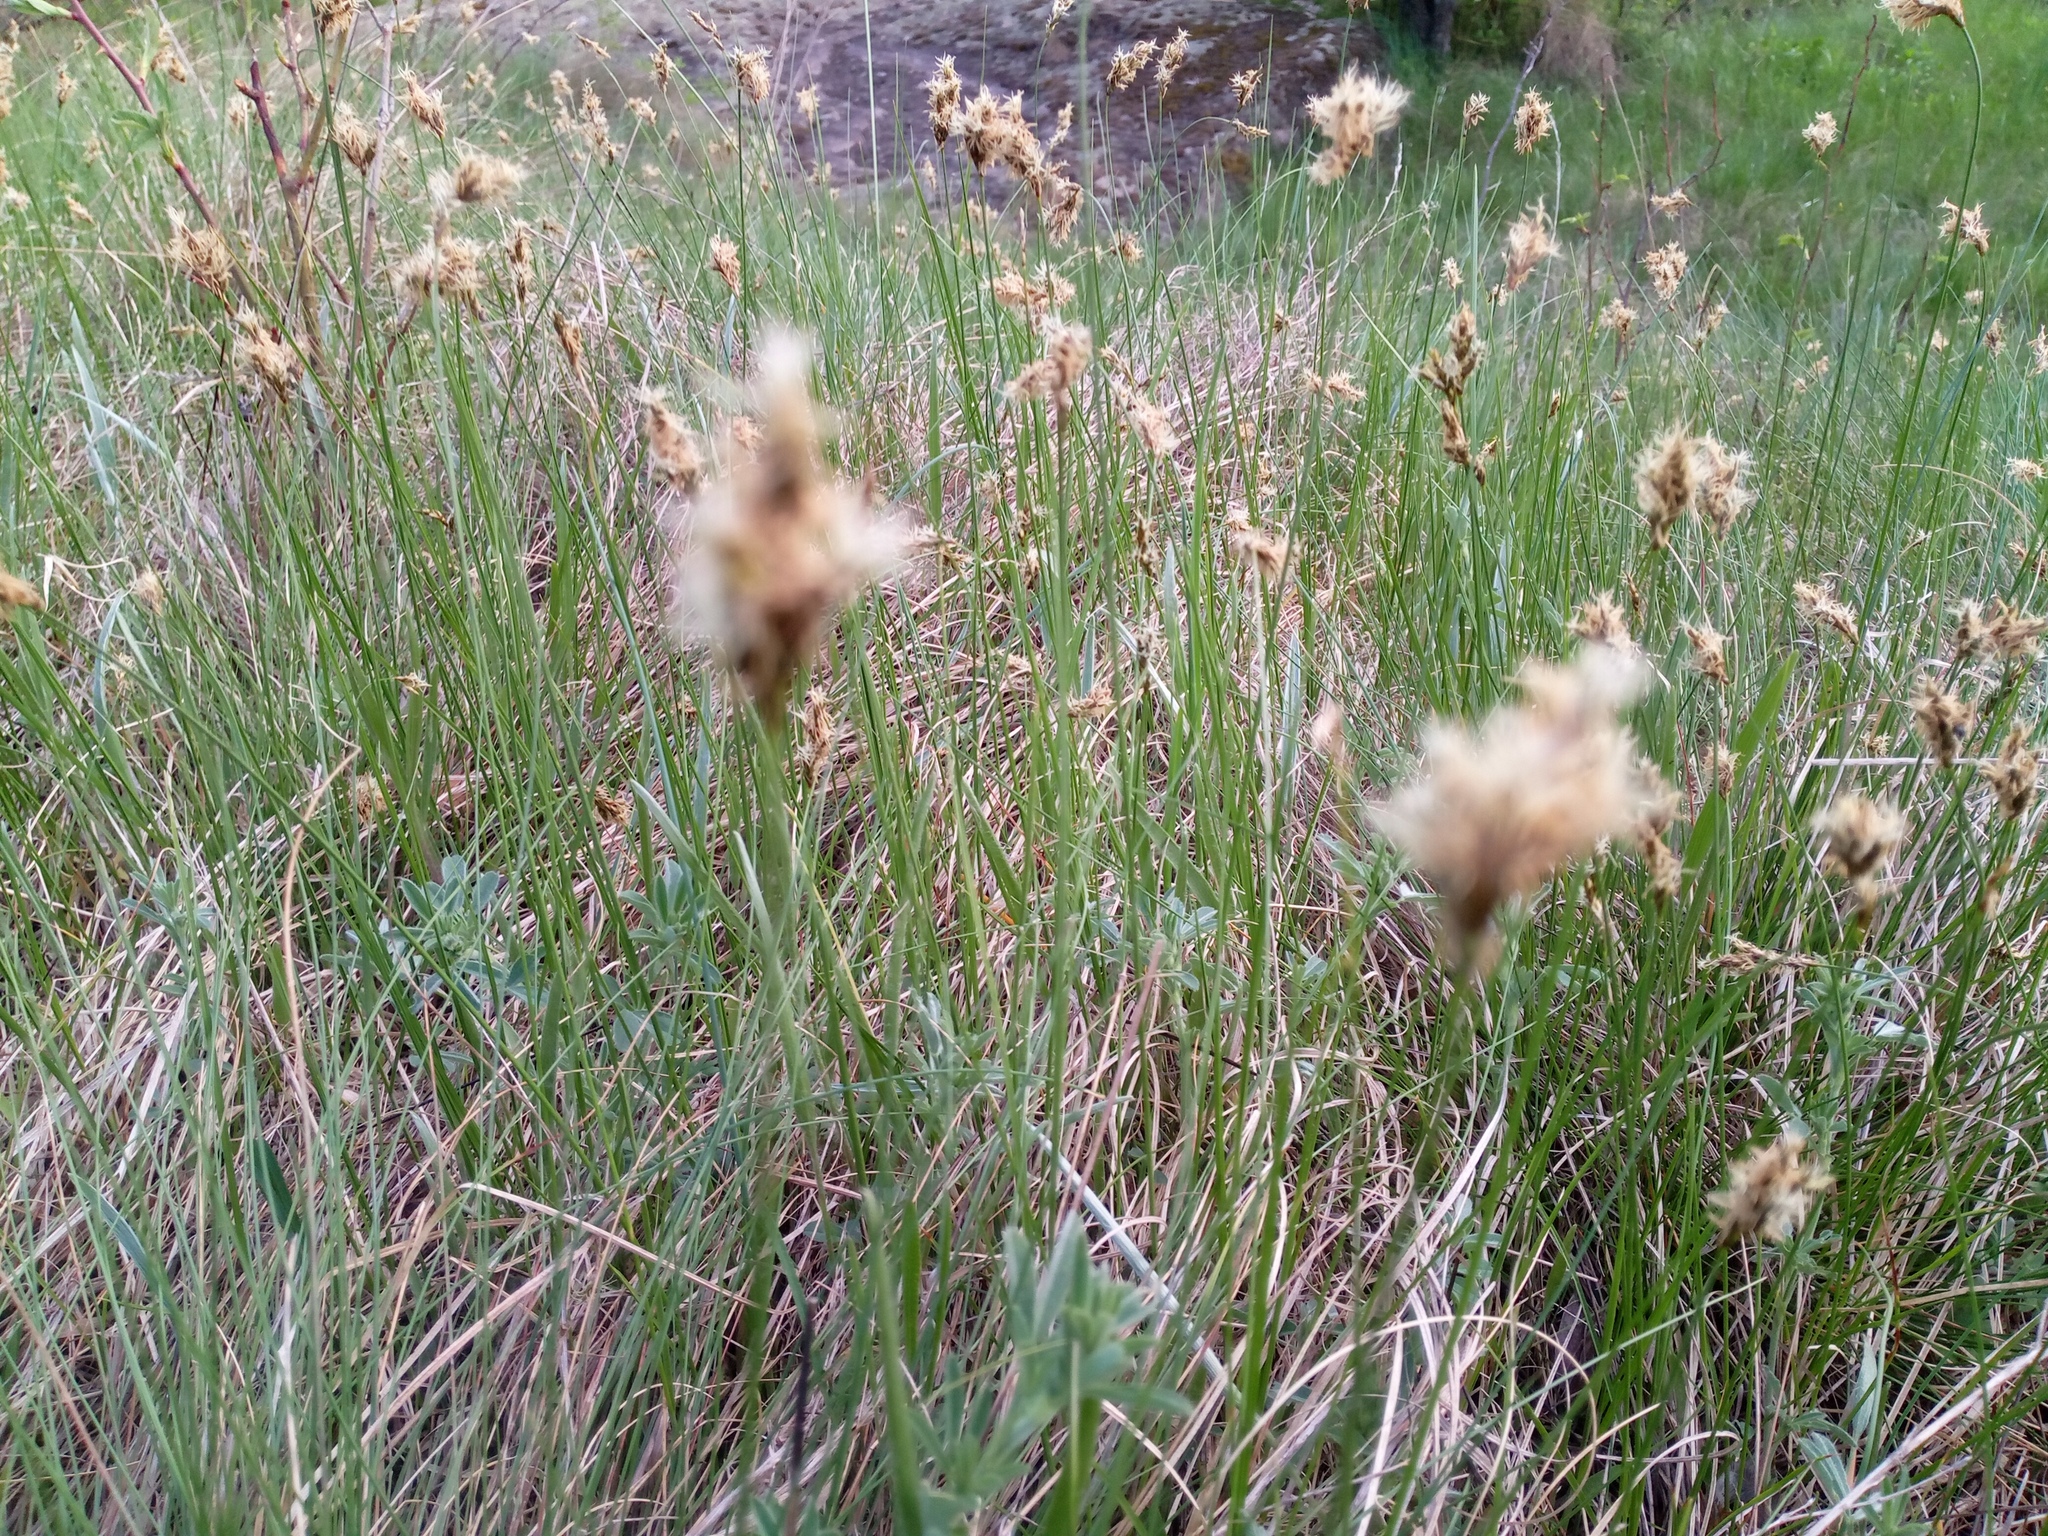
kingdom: Plantae
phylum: Tracheophyta
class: Liliopsida
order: Poales
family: Cyperaceae
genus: Carex
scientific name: Carex praecox
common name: Early sedge
